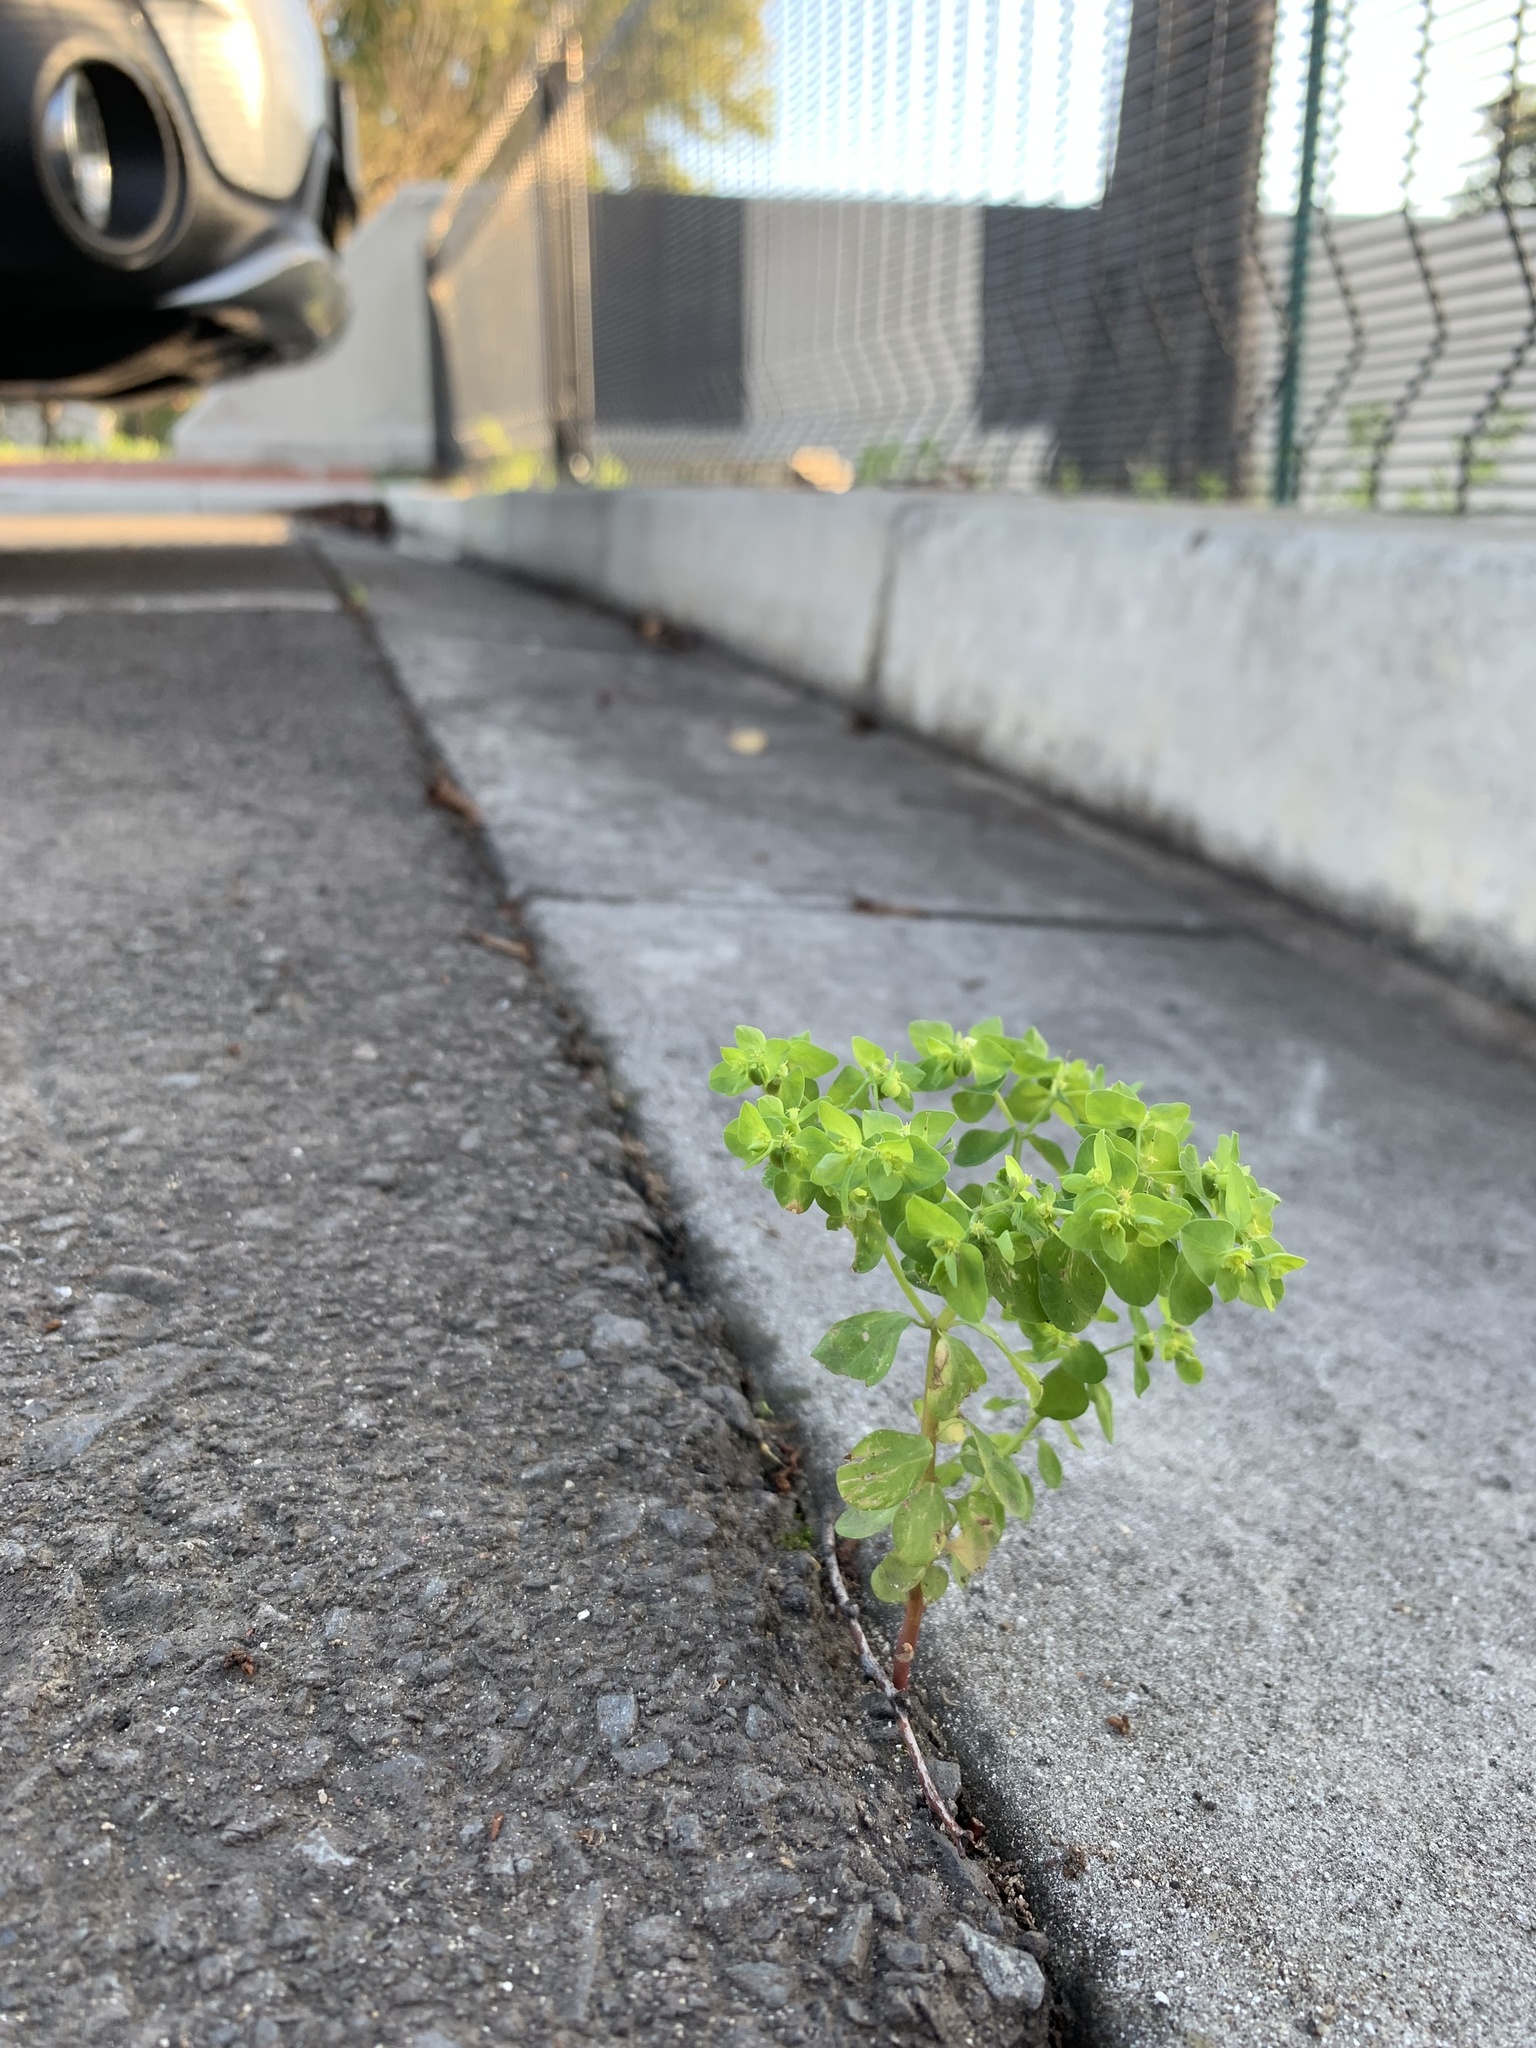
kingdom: Plantae
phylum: Tracheophyta
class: Magnoliopsida
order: Malpighiales
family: Euphorbiaceae
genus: Euphorbia
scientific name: Euphorbia peplus
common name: Petty spurge
